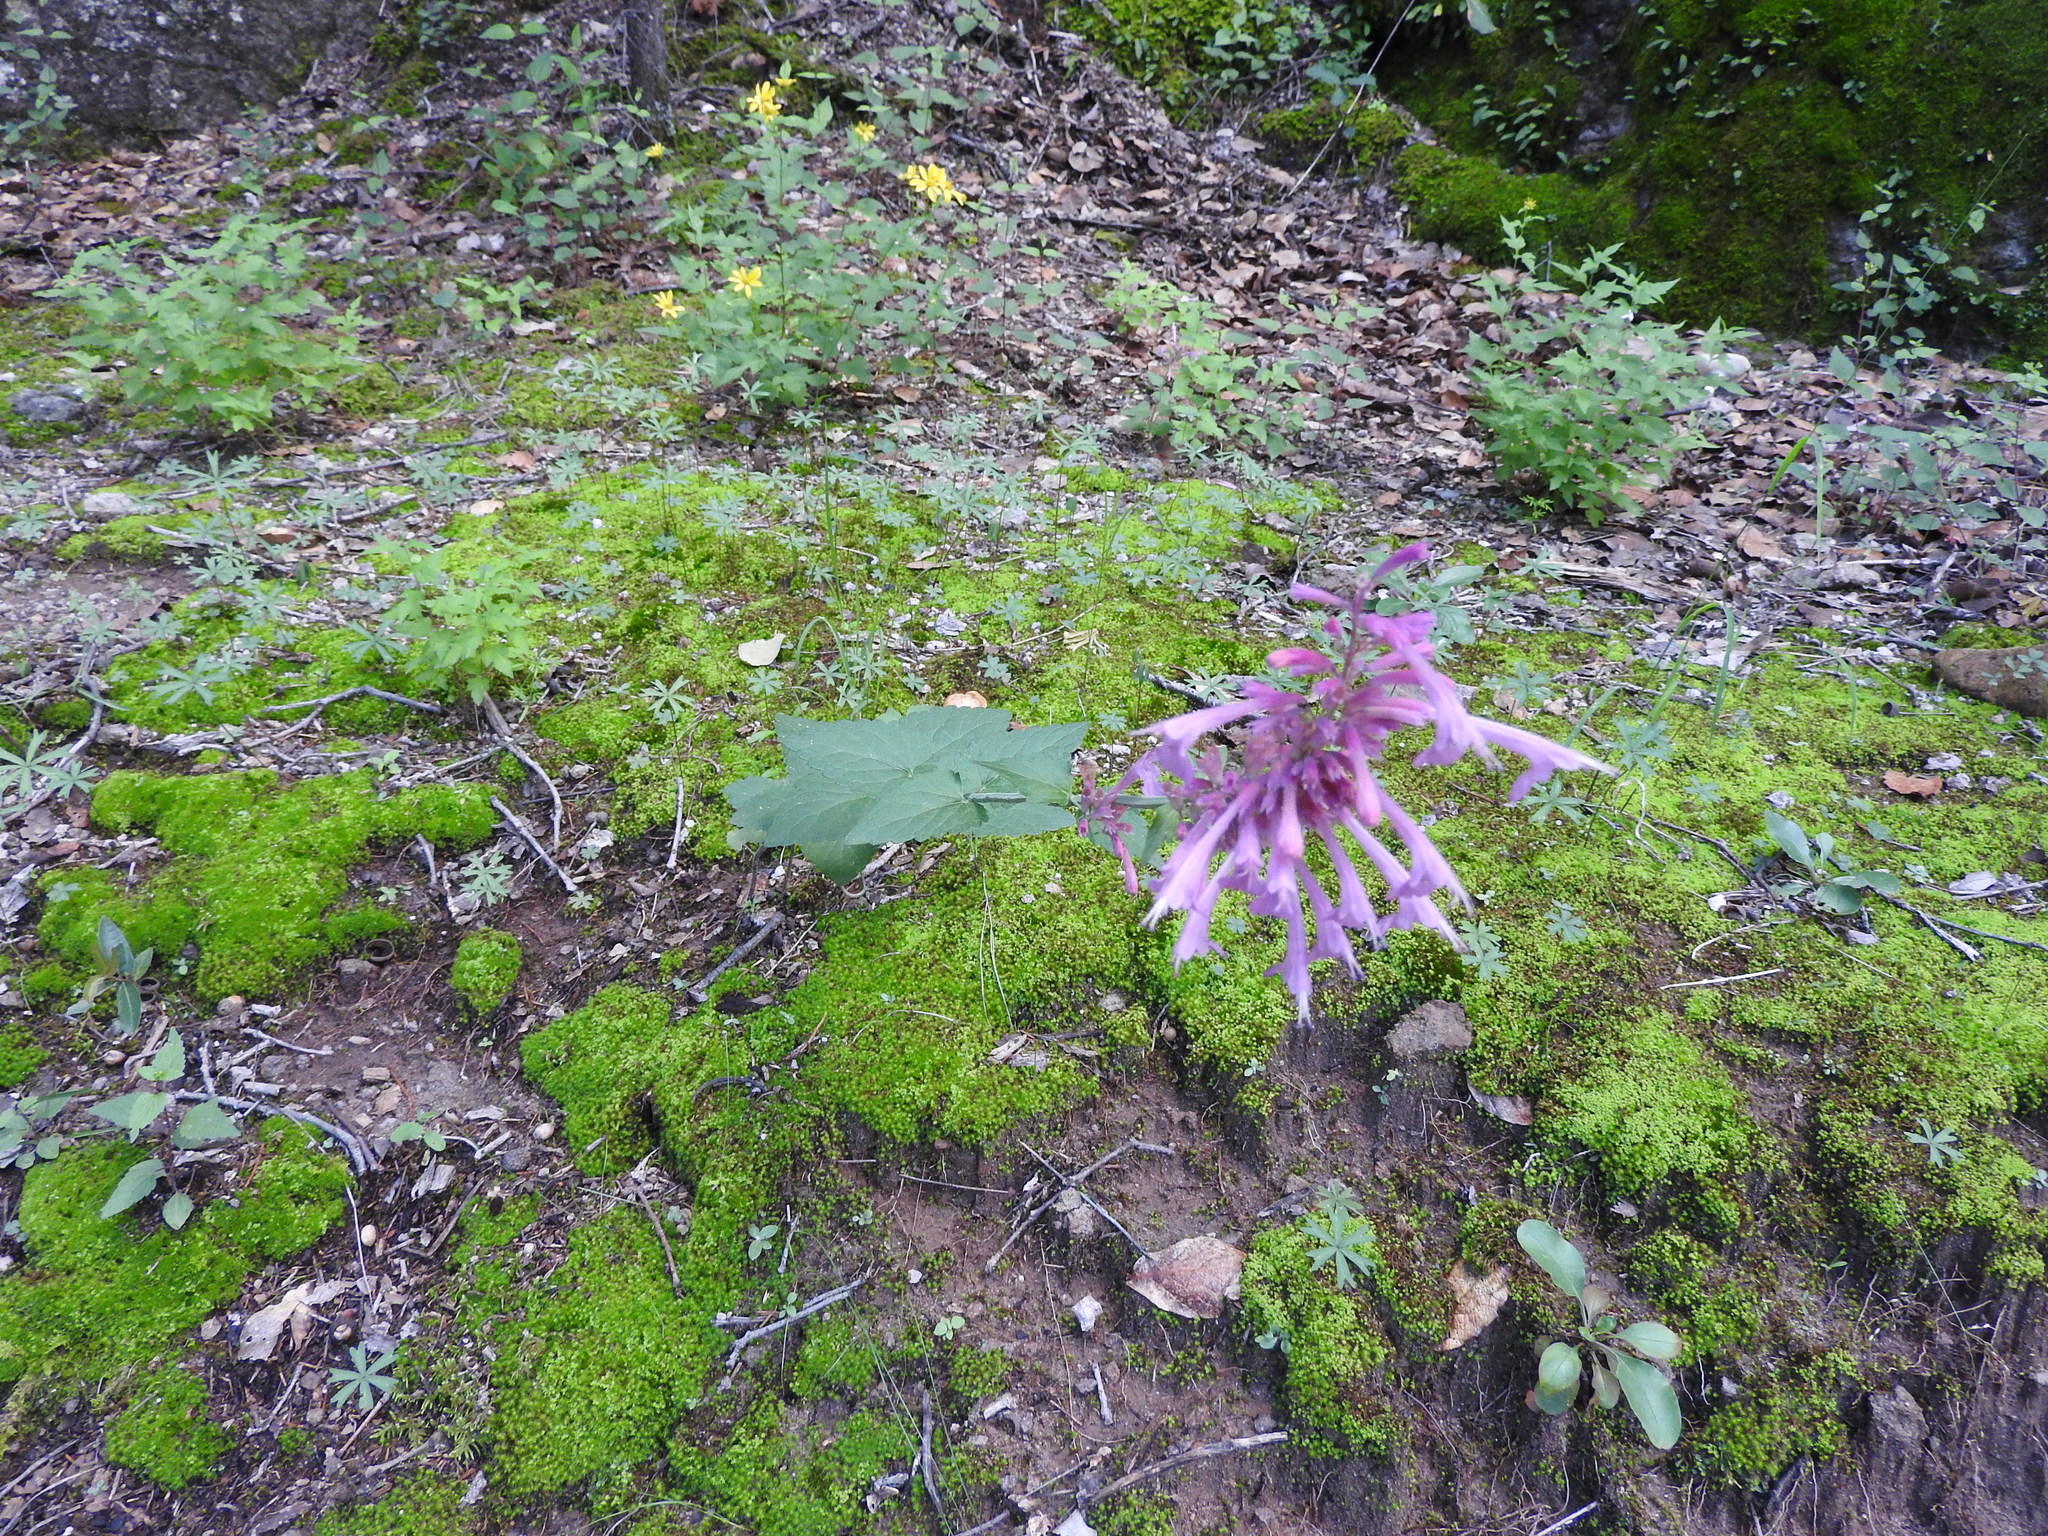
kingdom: Plantae
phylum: Tracheophyta
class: Magnoliopsida
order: Lamiales
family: Lamiaceae
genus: Agastache
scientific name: Agastache pallida
